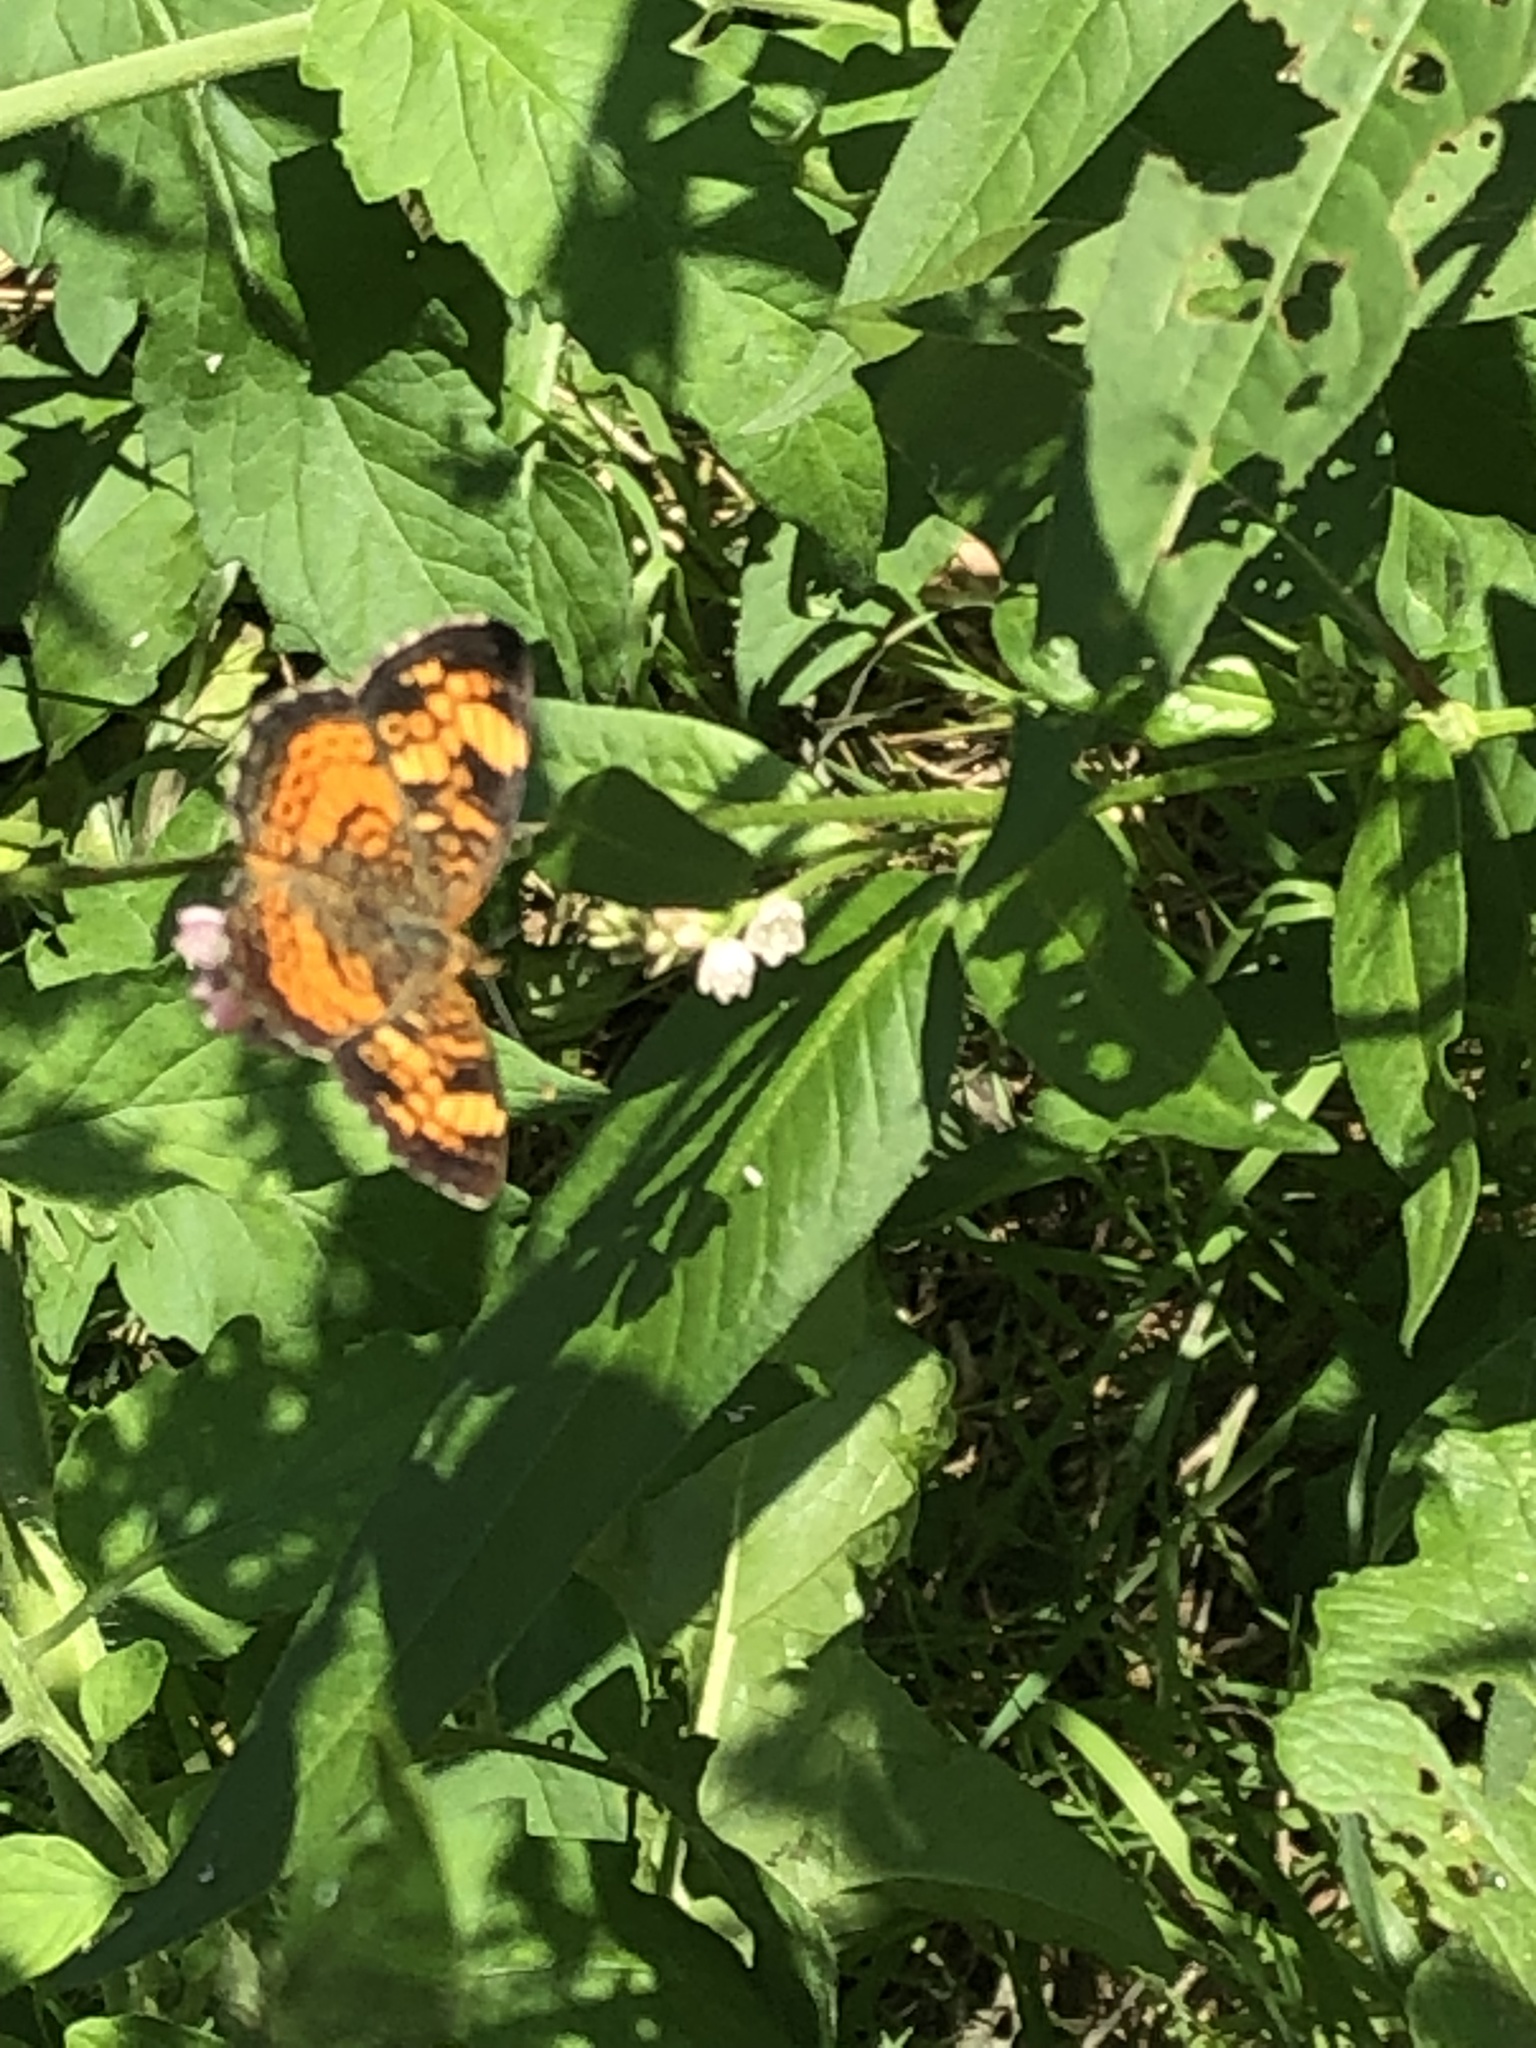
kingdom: Animalia
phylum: Arthropoda
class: Insecta
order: Lepidoptera
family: Nymphalidae
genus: Phyciodes
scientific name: Phyciodes tharos
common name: Pearl crescent
